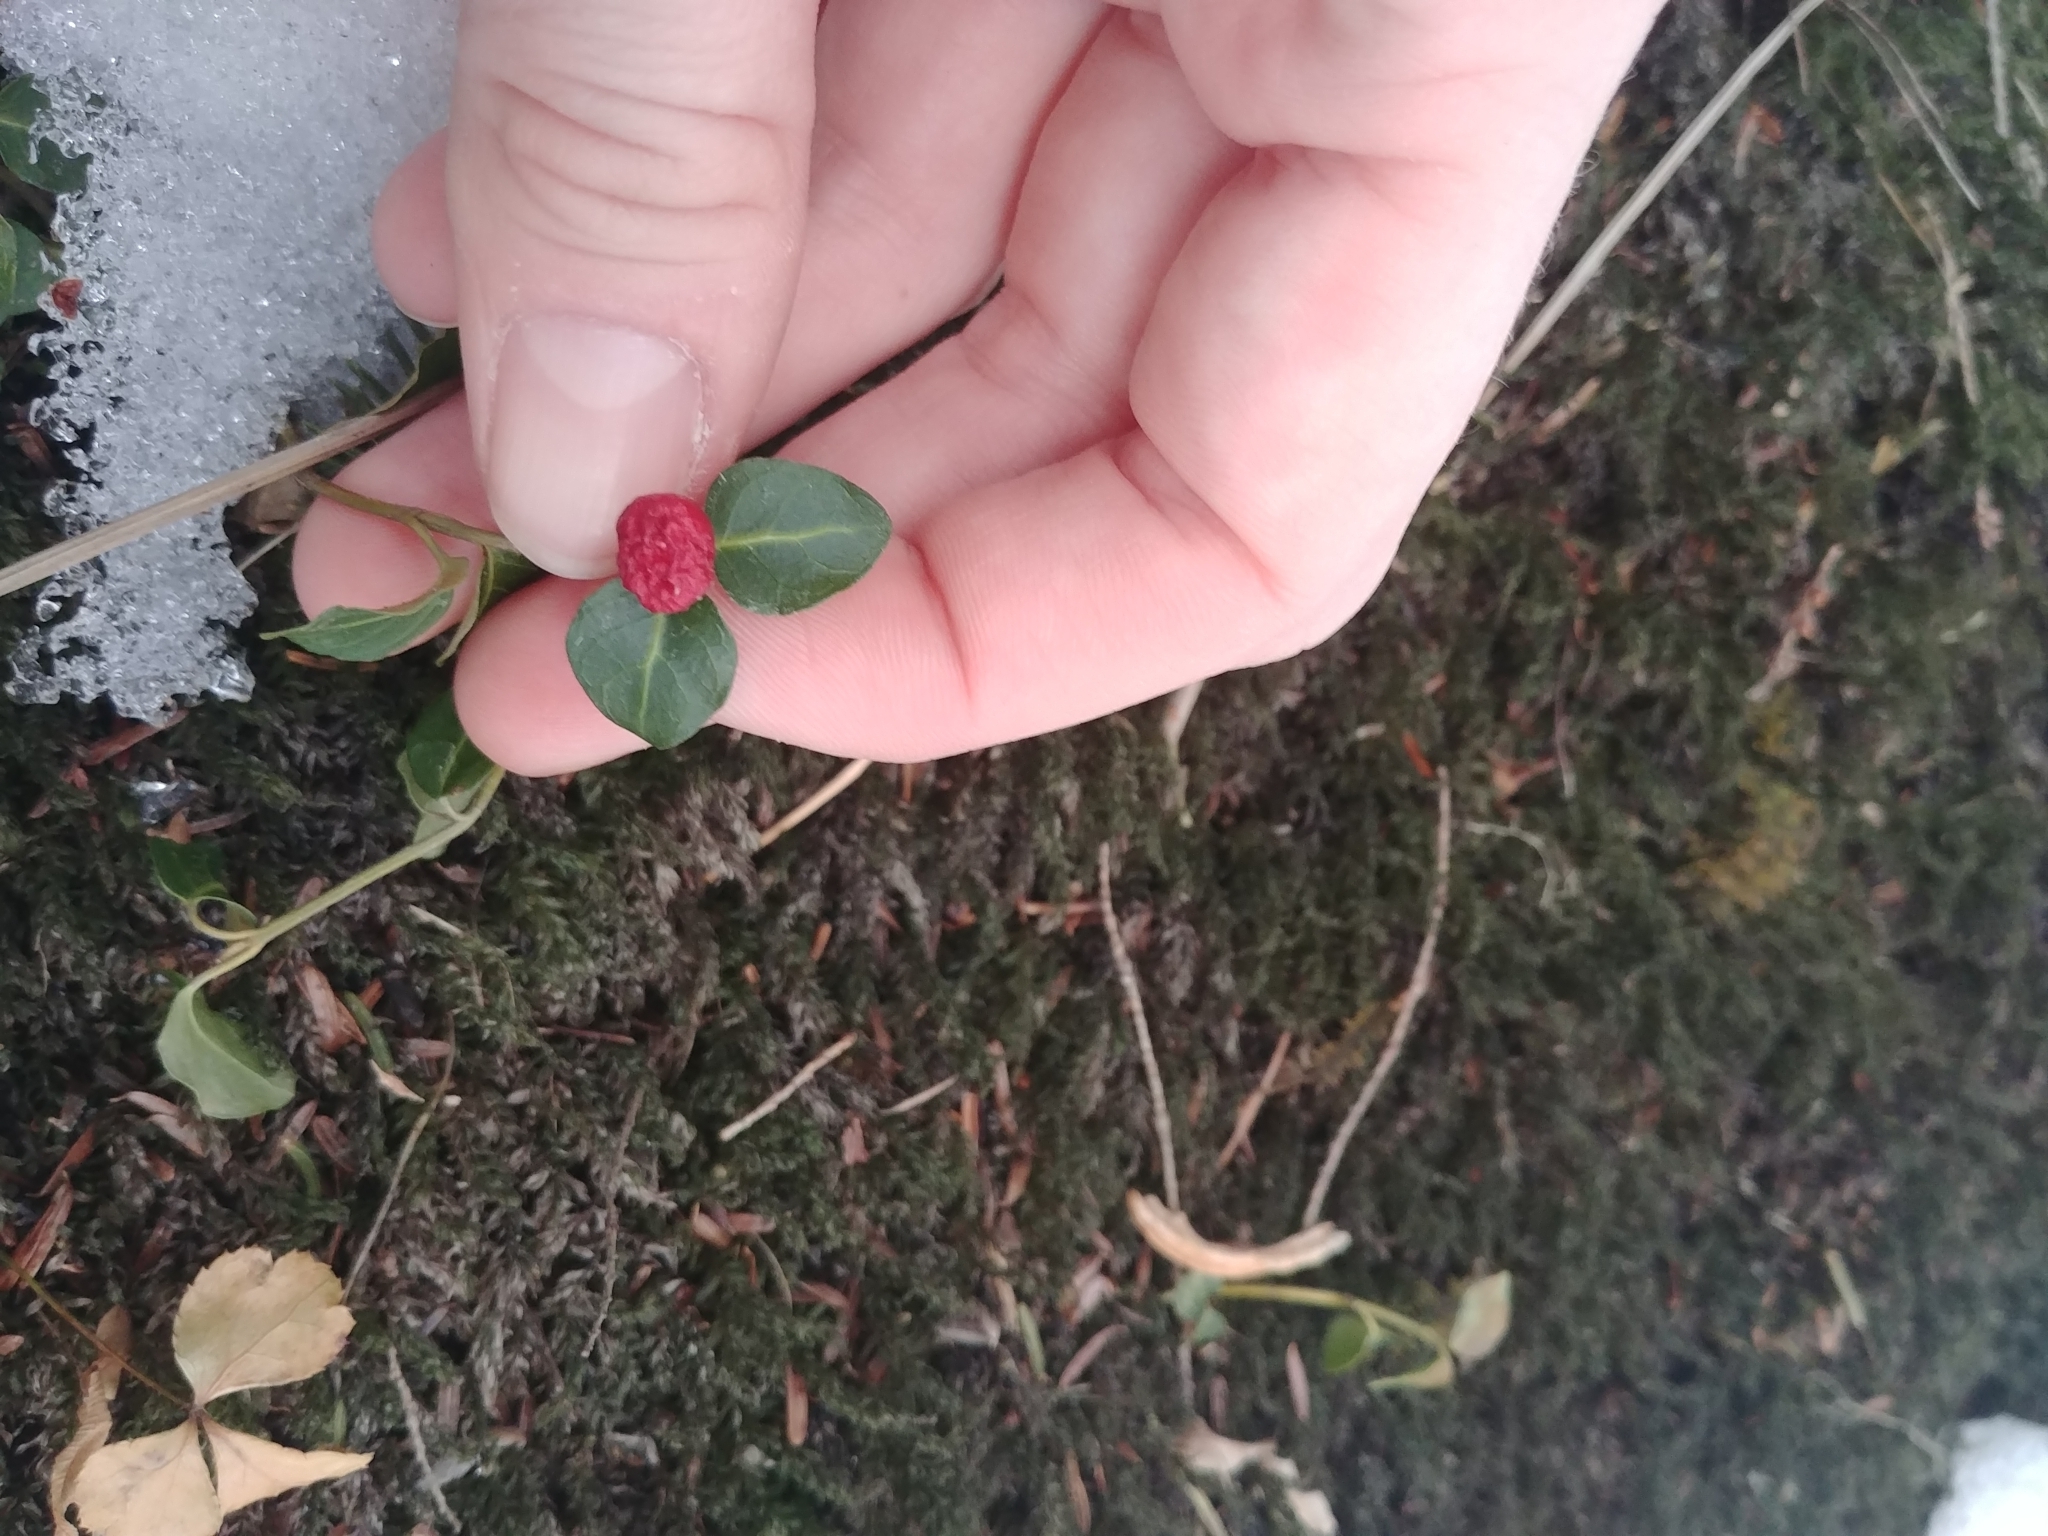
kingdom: Plantae
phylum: Tracheophyta
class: Magnoliopsida
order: Gentianales
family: Rubiaceae
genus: Mitchella
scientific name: Mitchella repens
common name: Partridge-berry
